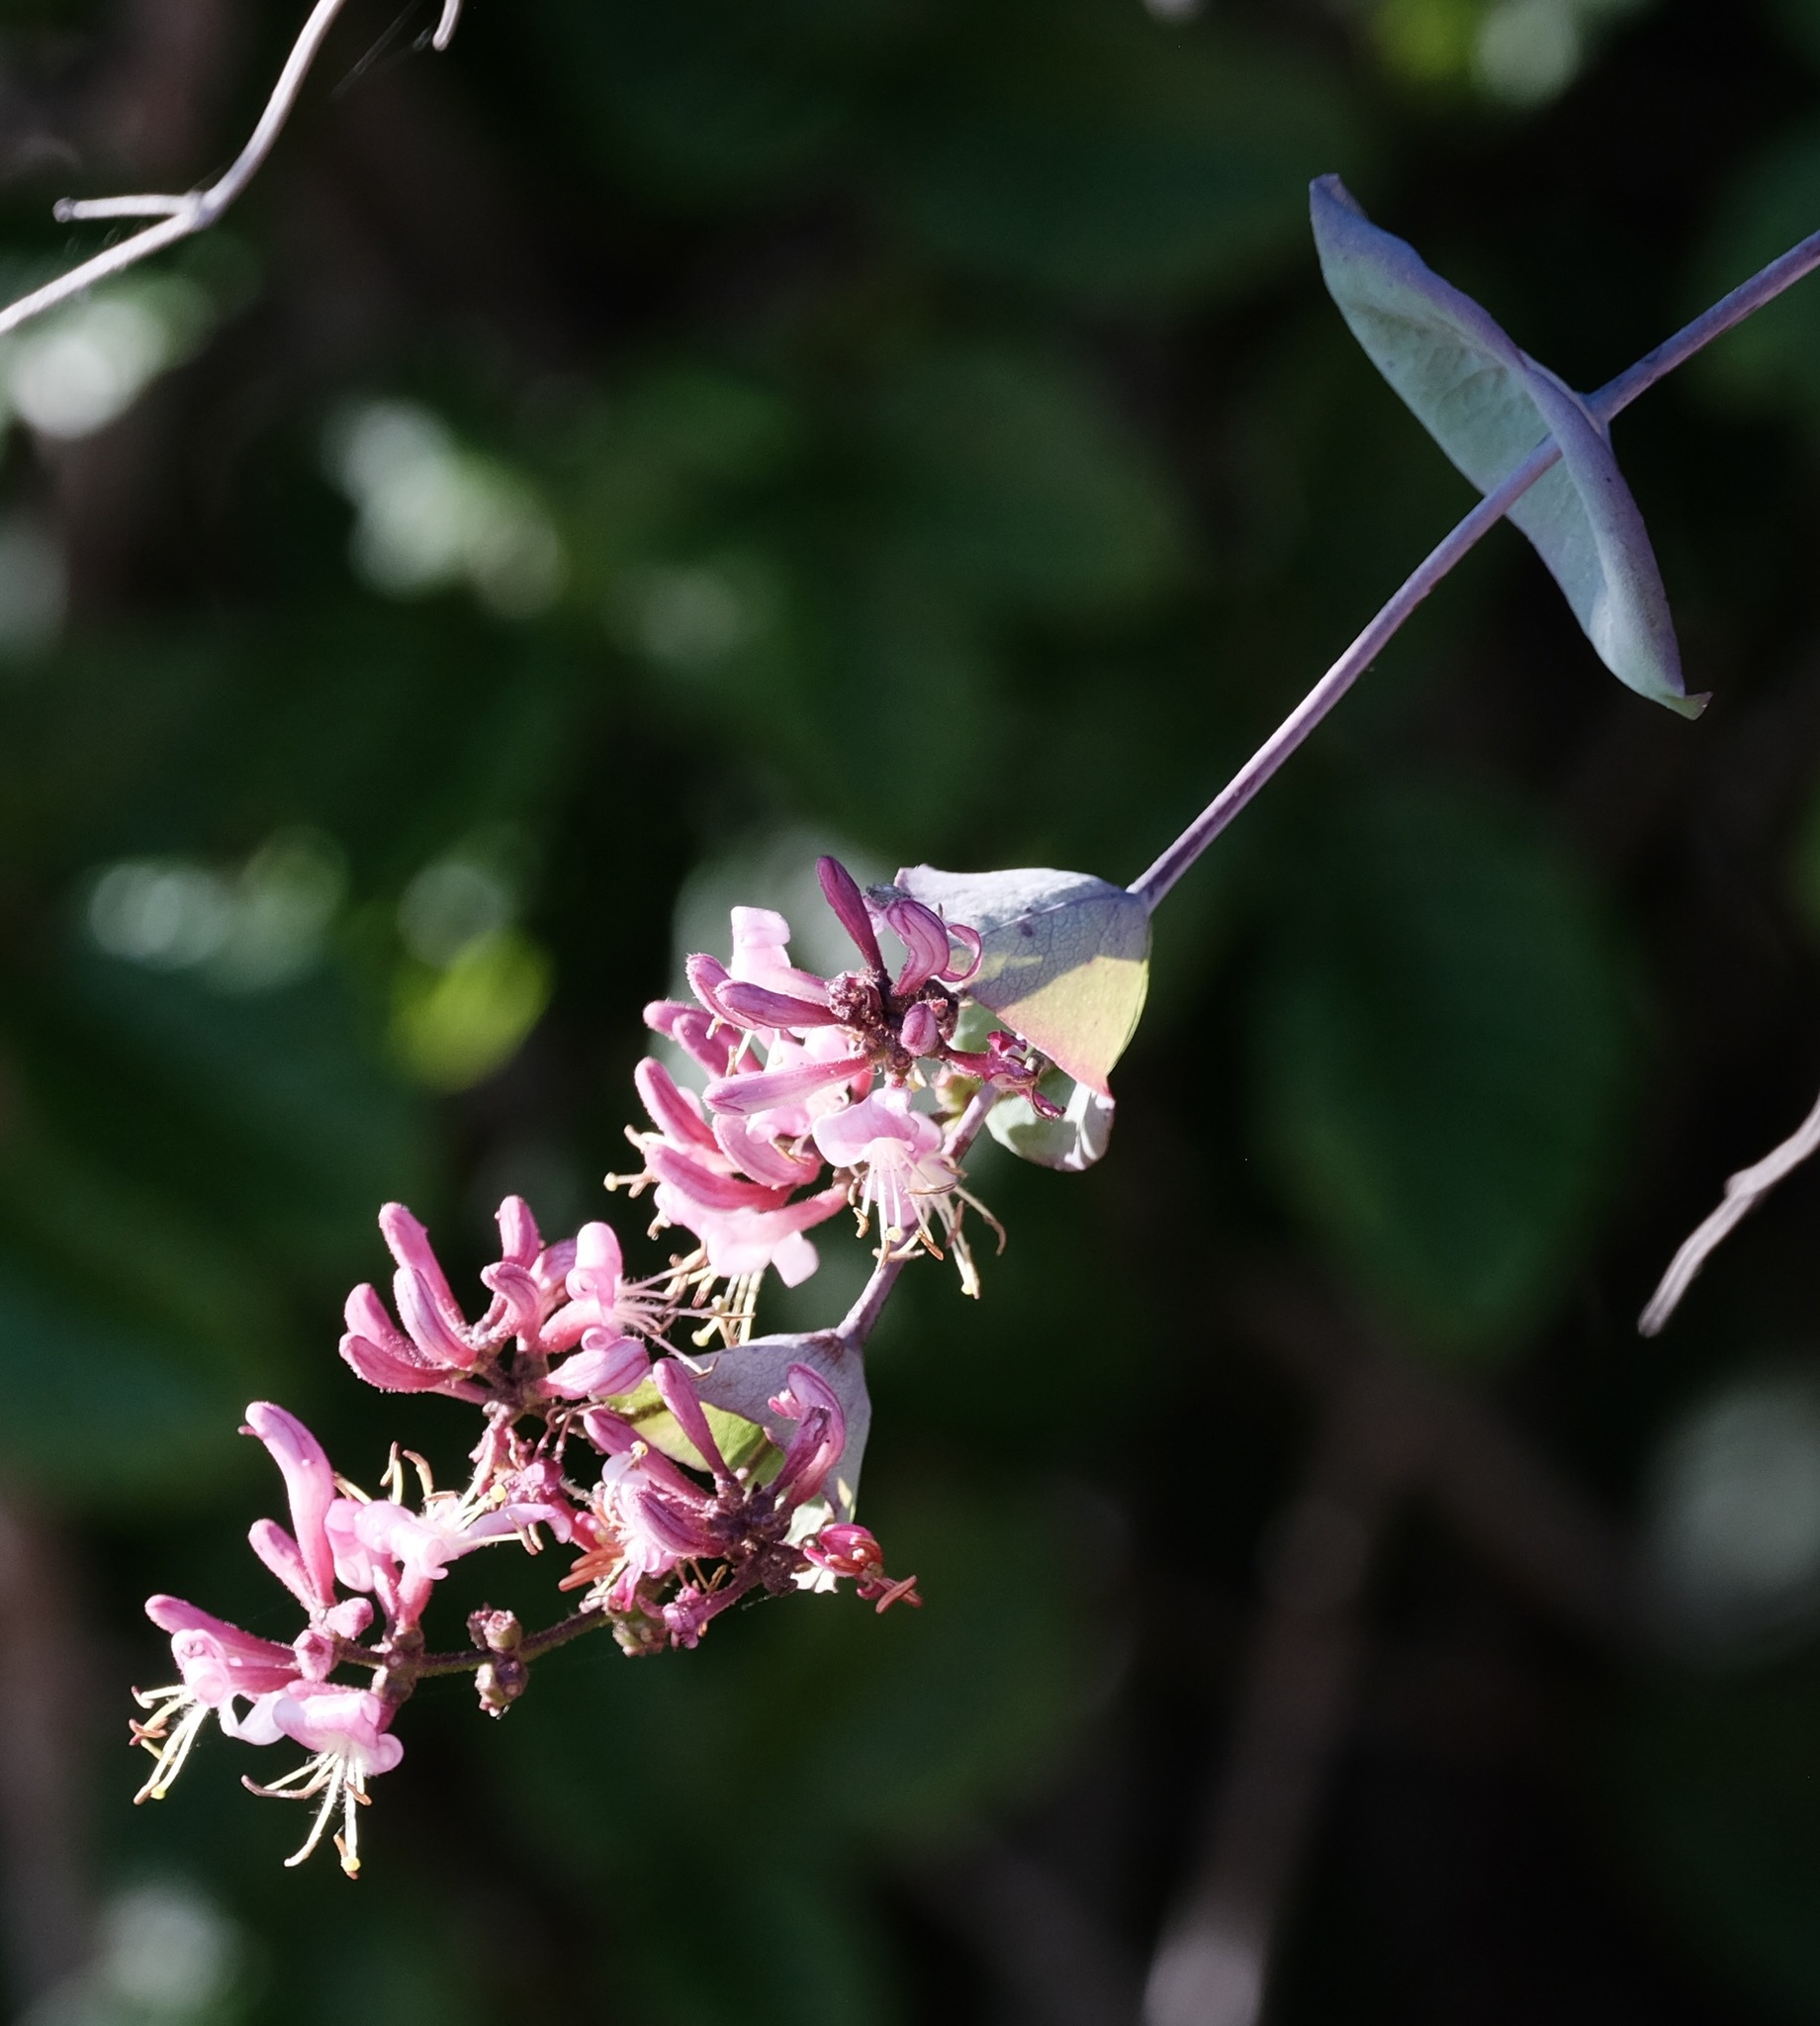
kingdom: Plantae
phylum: Tracheophyta
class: Magnoliopsida
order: Dipsacales
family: Caprifoliaceae
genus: Lonicera
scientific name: Lonicera hispidula
